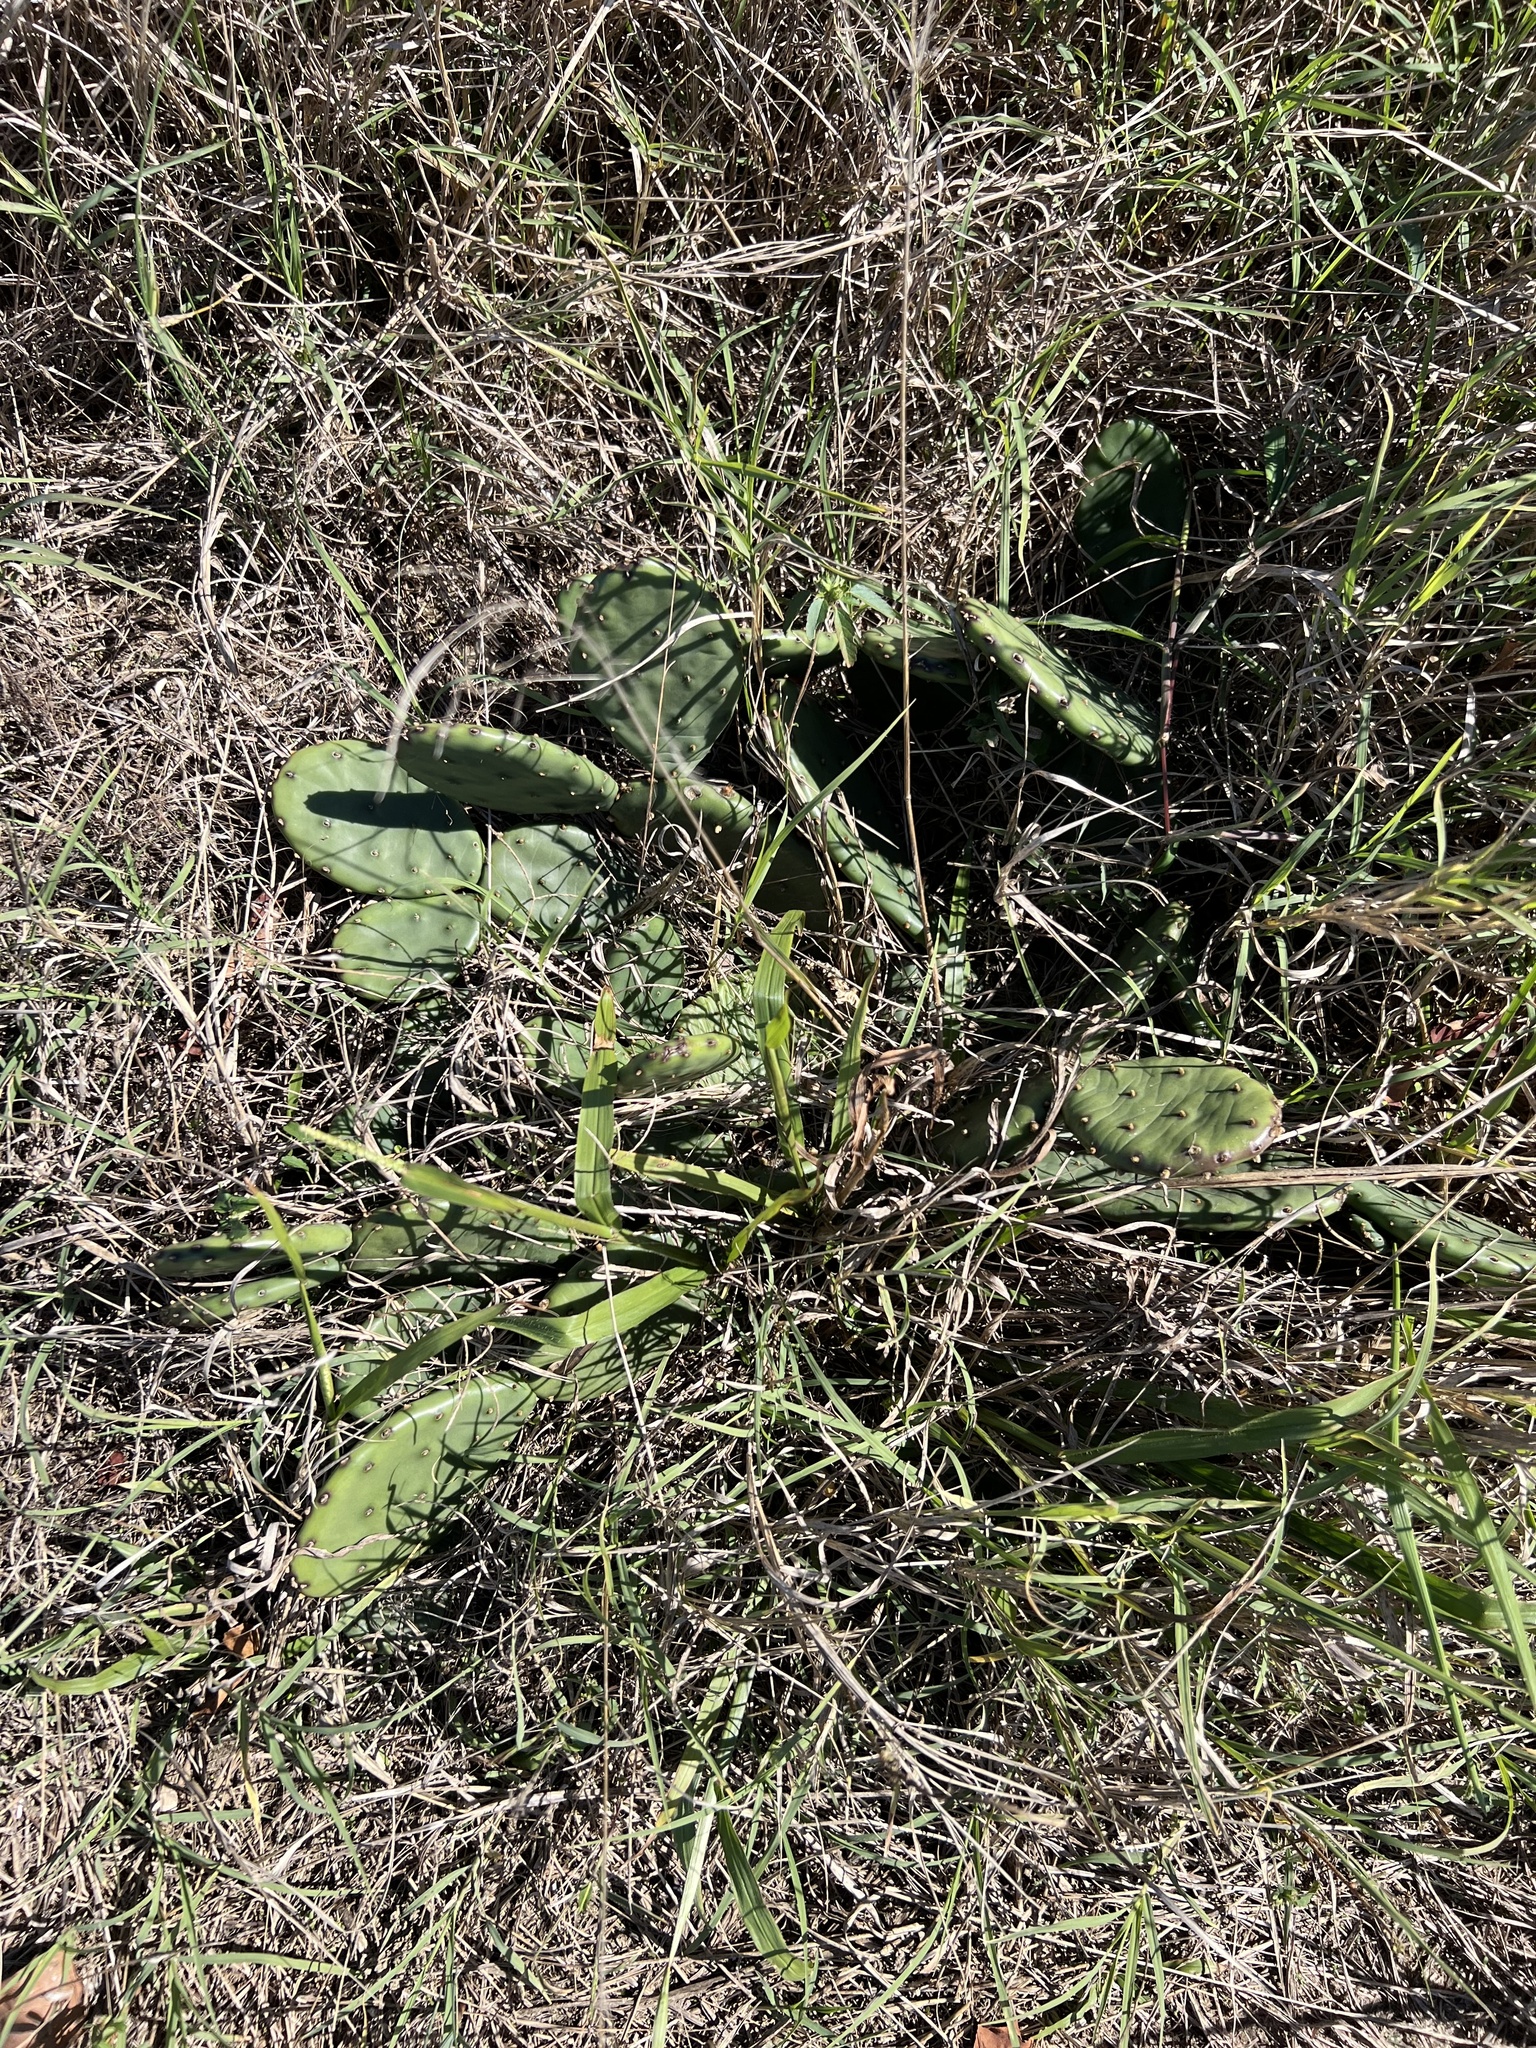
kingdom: Plantae
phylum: Tracheophyta
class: Magnoliopsida
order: Caryophyllales
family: Cactaceae
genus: Opuntia
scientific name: Opuntia humifusa
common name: Eastern prickly-pear
